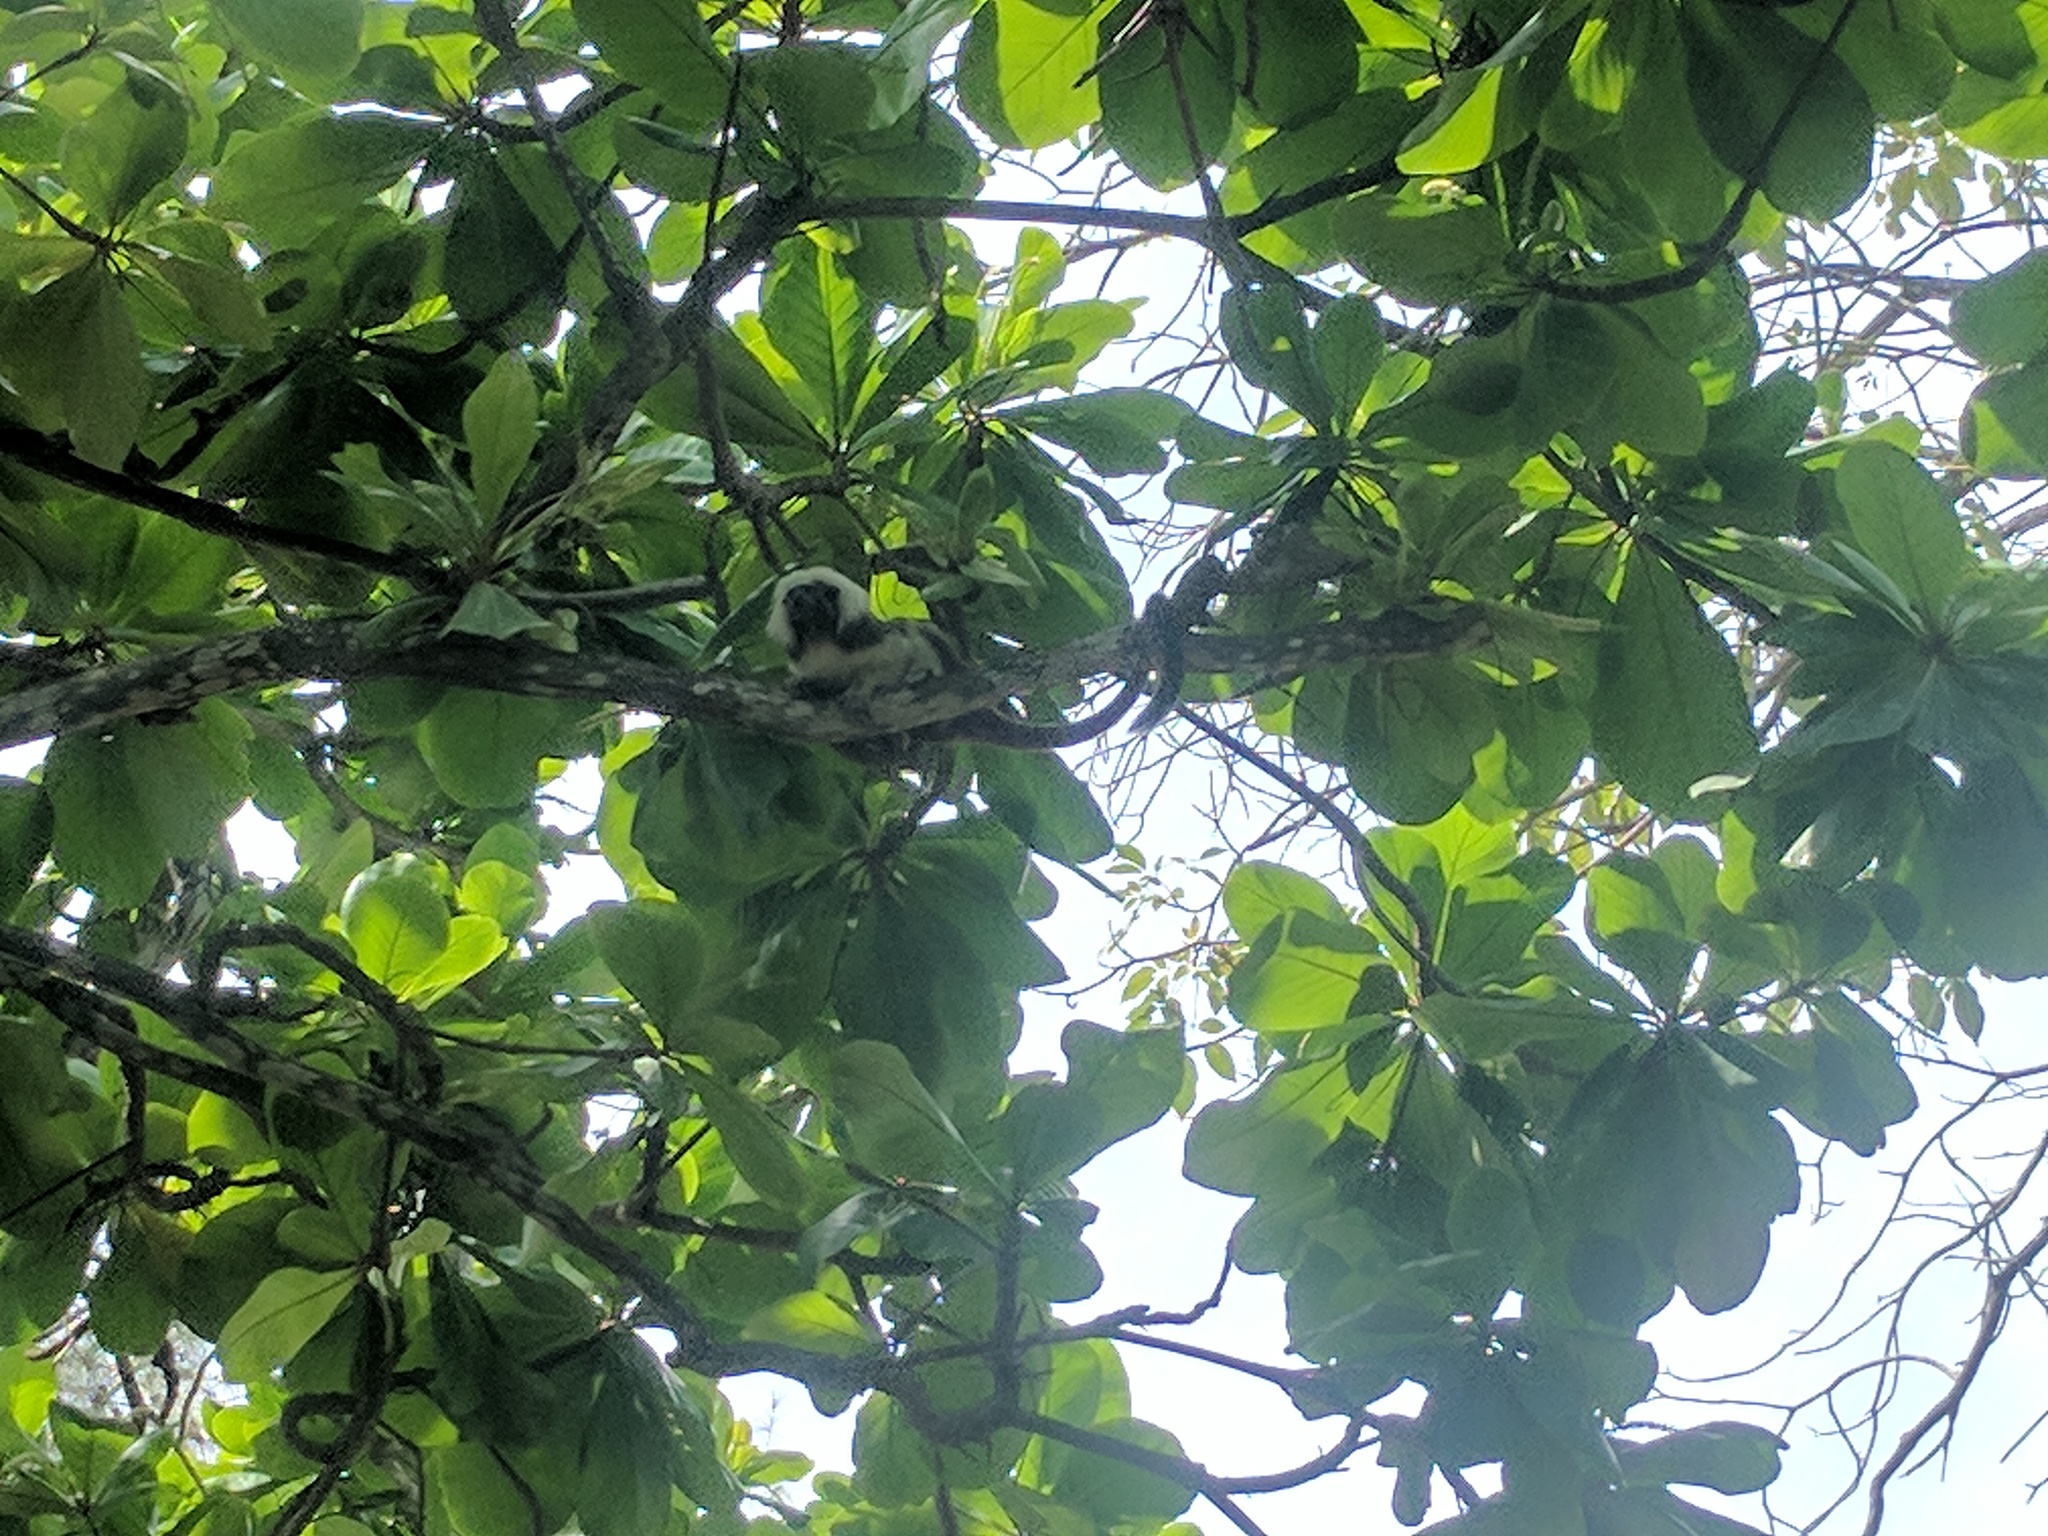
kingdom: Animalia
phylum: Chordata
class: Mammalia
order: Primates
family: Callitrichidae
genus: Saguinus
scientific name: Saguinus oedipus
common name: Cottontop tamarin
